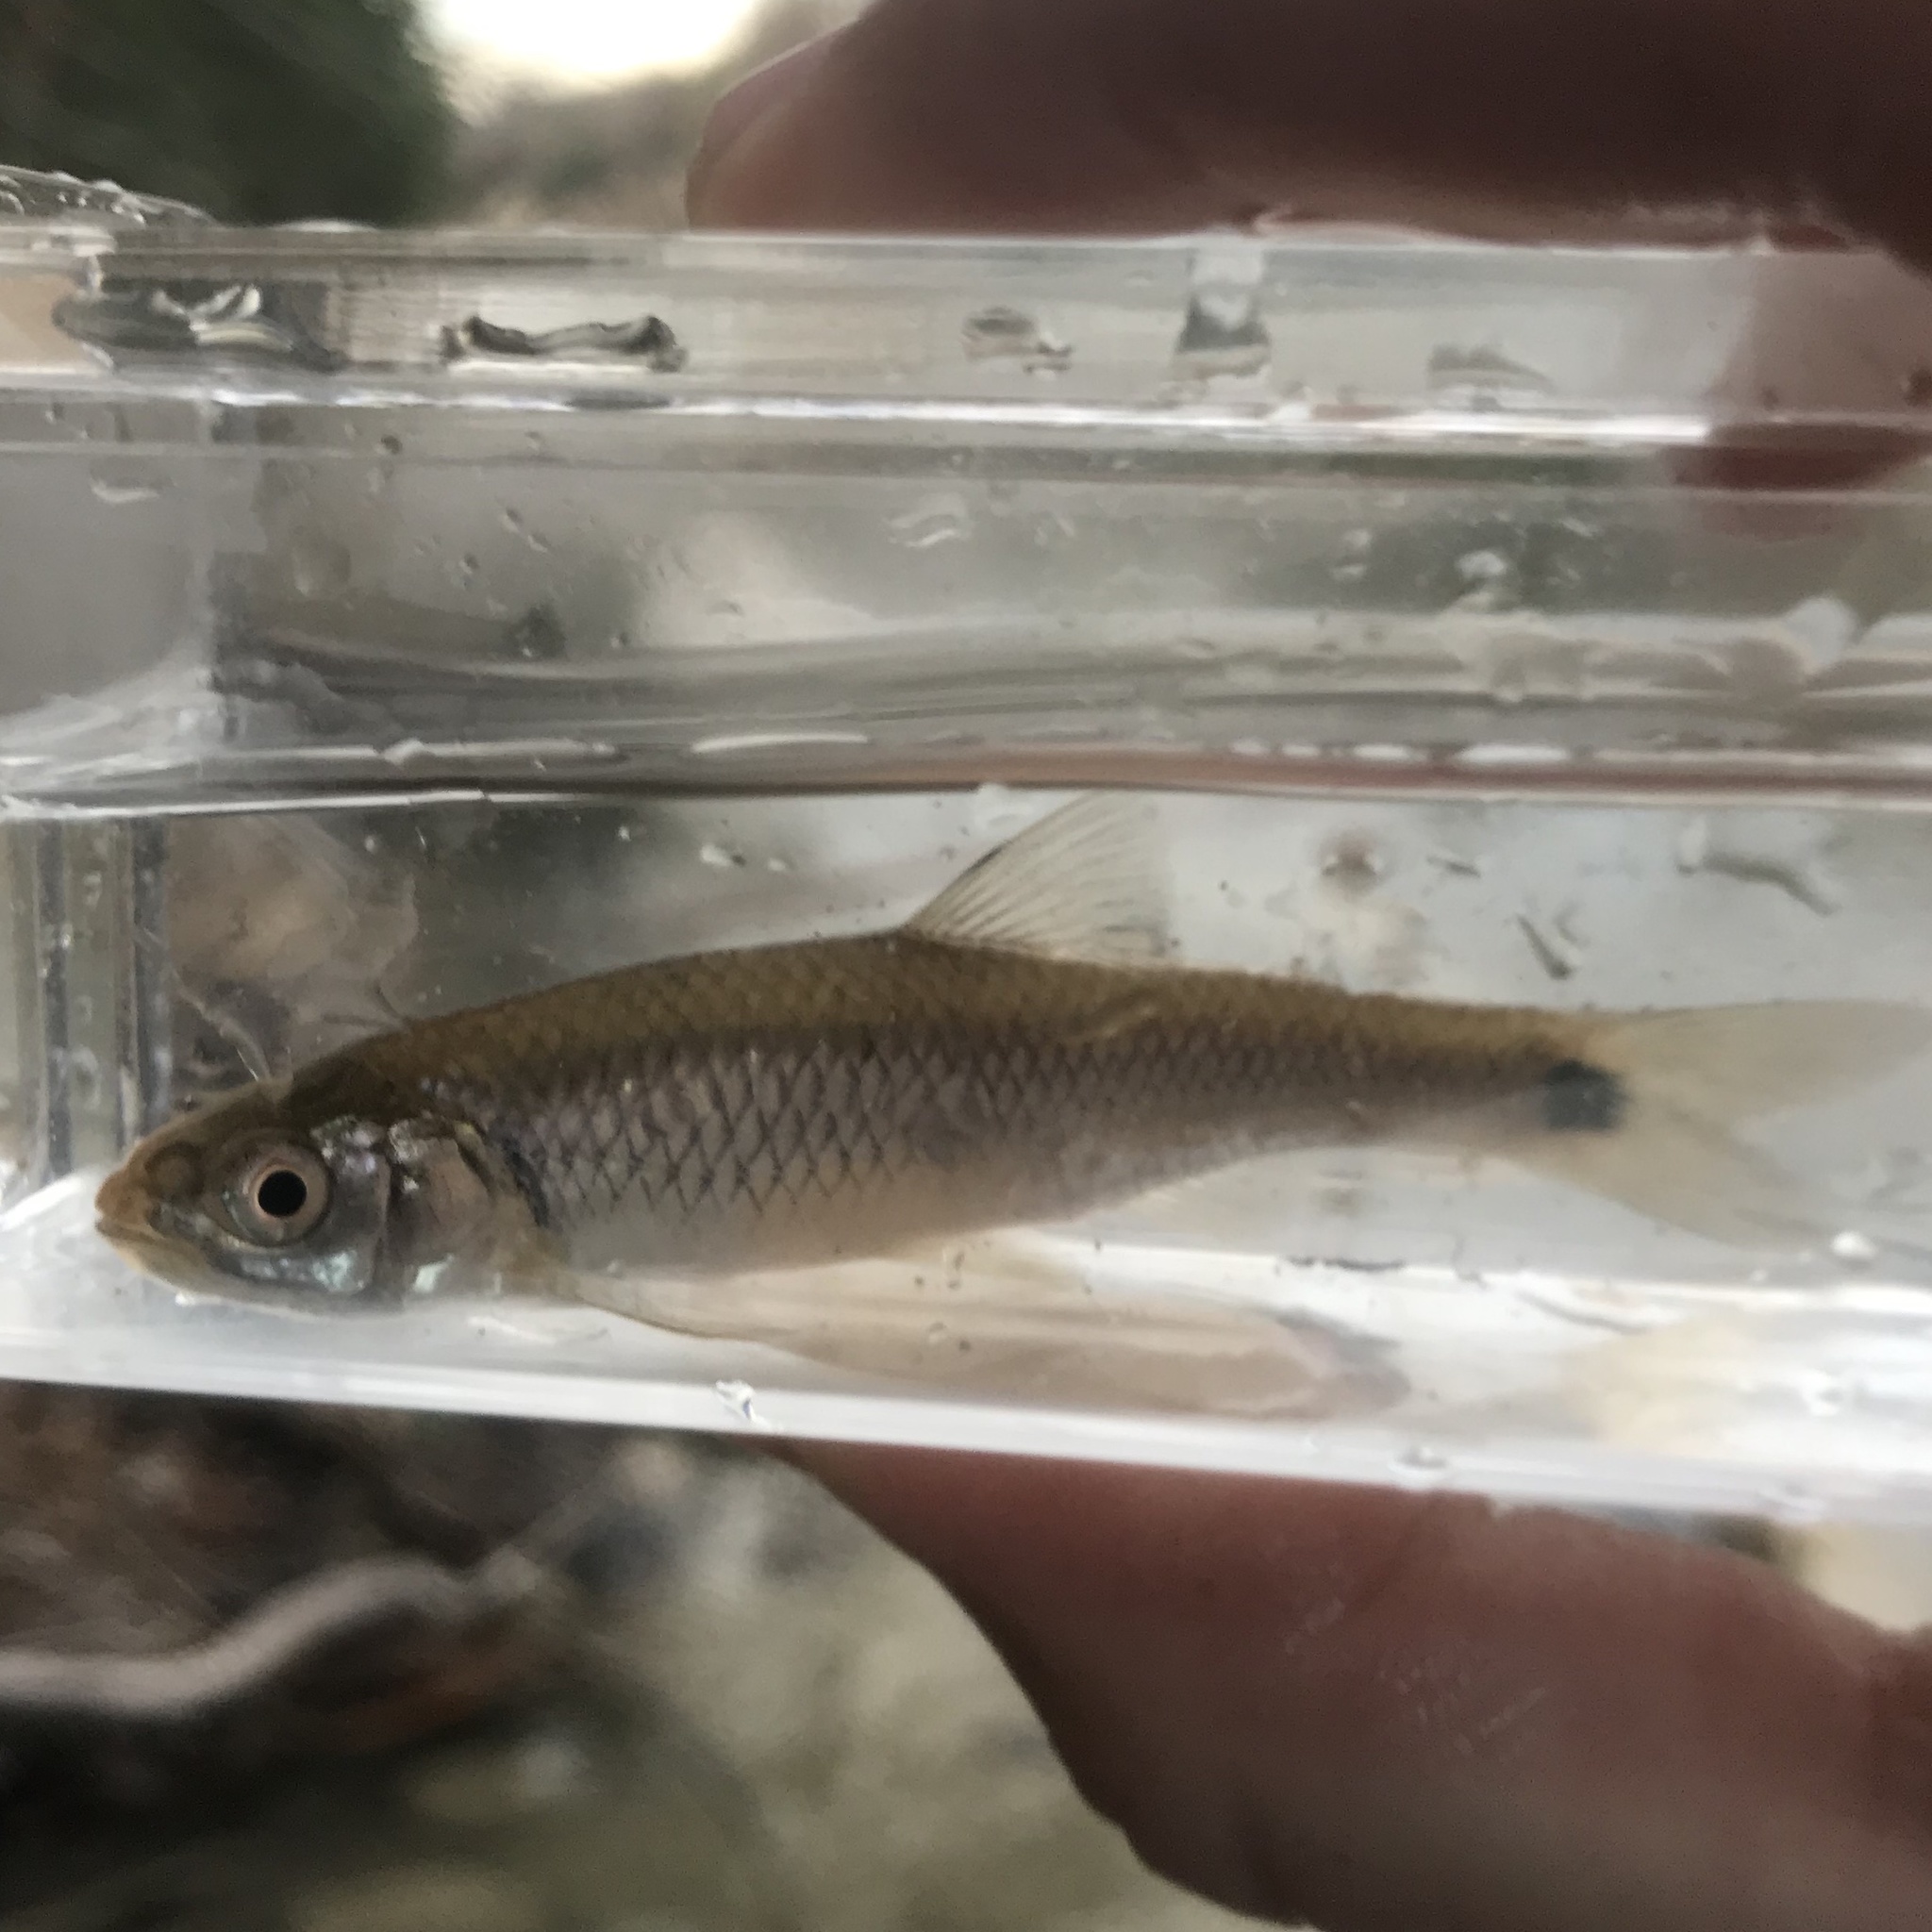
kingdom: Animalia
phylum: Chordata
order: Cypriniformes
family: Cyprinidae
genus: Cyprinella
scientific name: Cyprinella venusta
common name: Blacktail shiner
